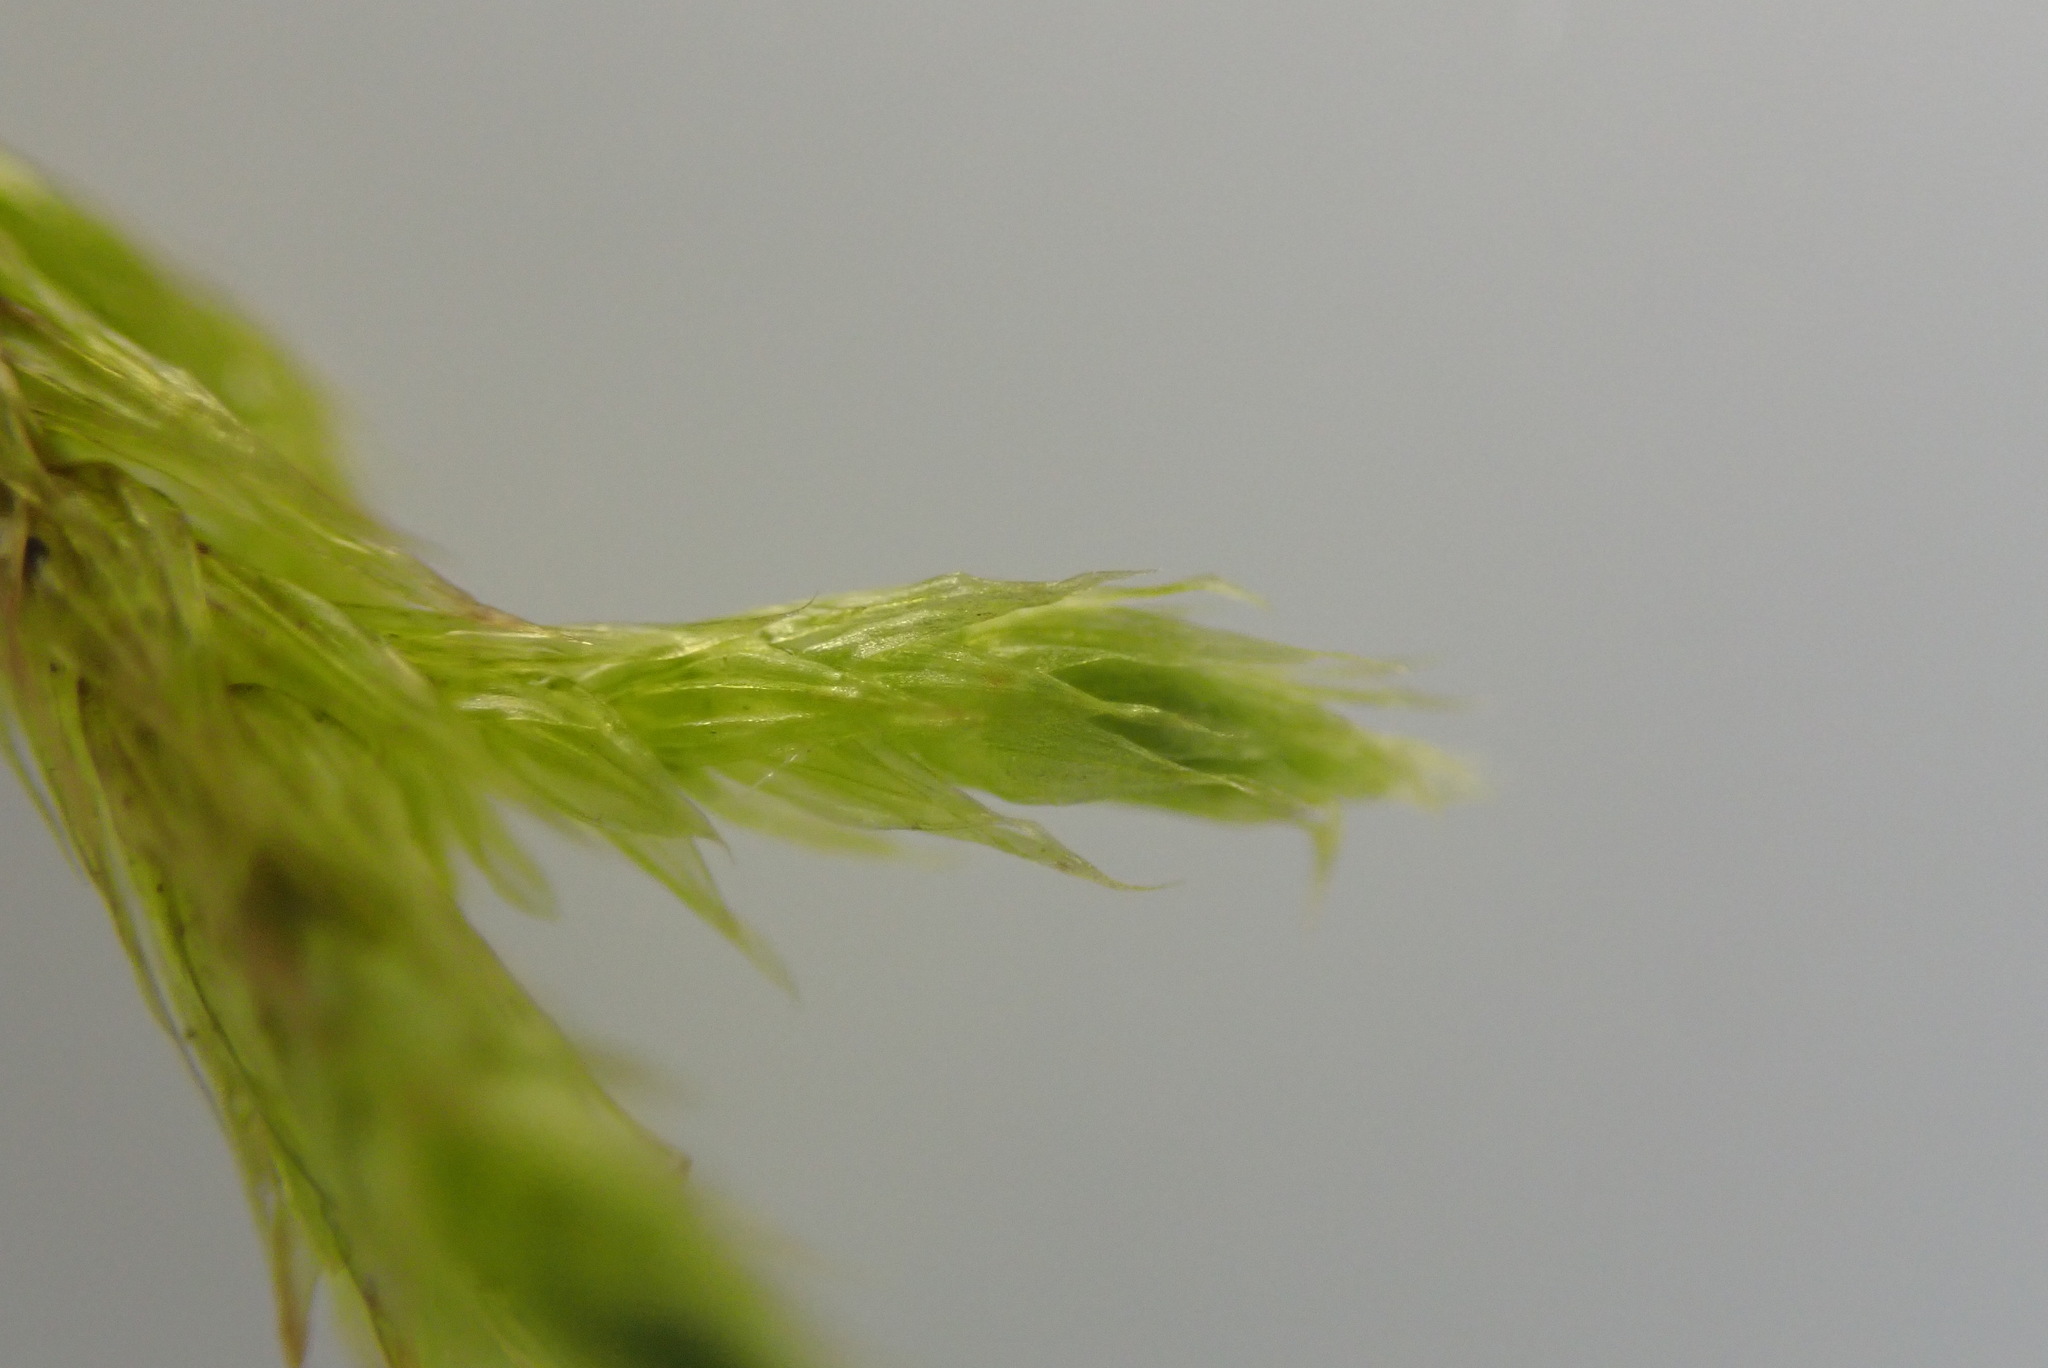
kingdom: Plantae
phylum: Bryophyta
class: Bryopsida
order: Hypnales
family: Brachytheciaceae
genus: Homalothecium
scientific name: Homalothecium lutescens
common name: Yellow feather-moss
